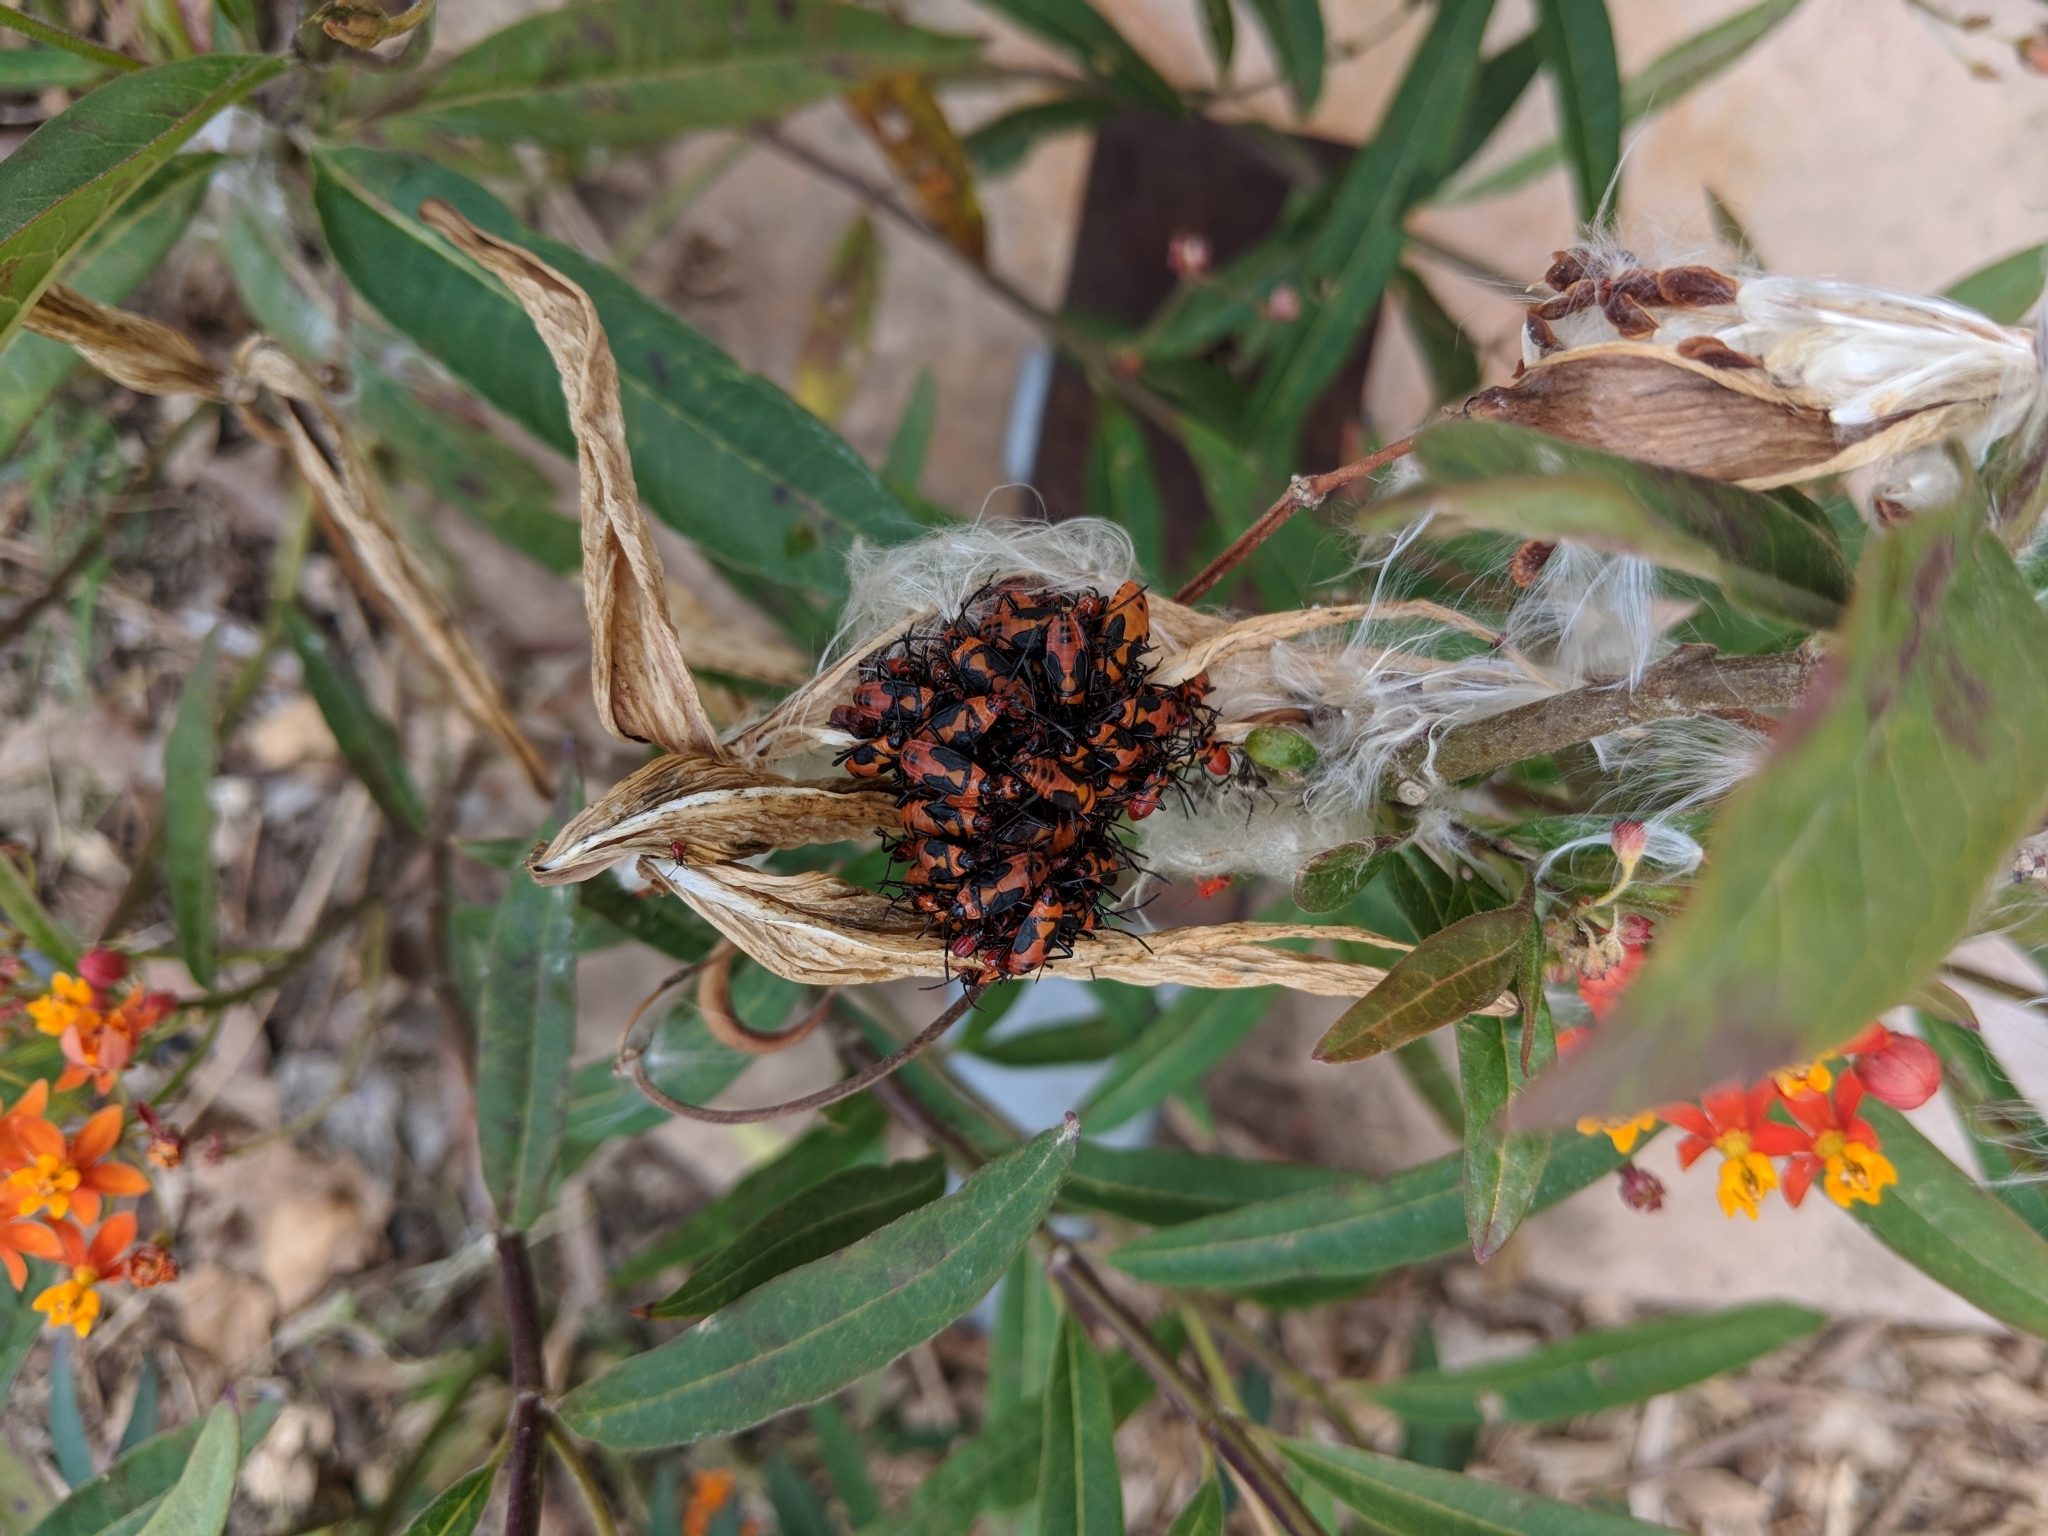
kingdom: Animalia
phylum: Arthropoda
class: Insecta
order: Hemiptera
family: Lygaeidae
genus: Oncopeltus
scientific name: Oncopeltus fasciatus
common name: Large milkweed bug
